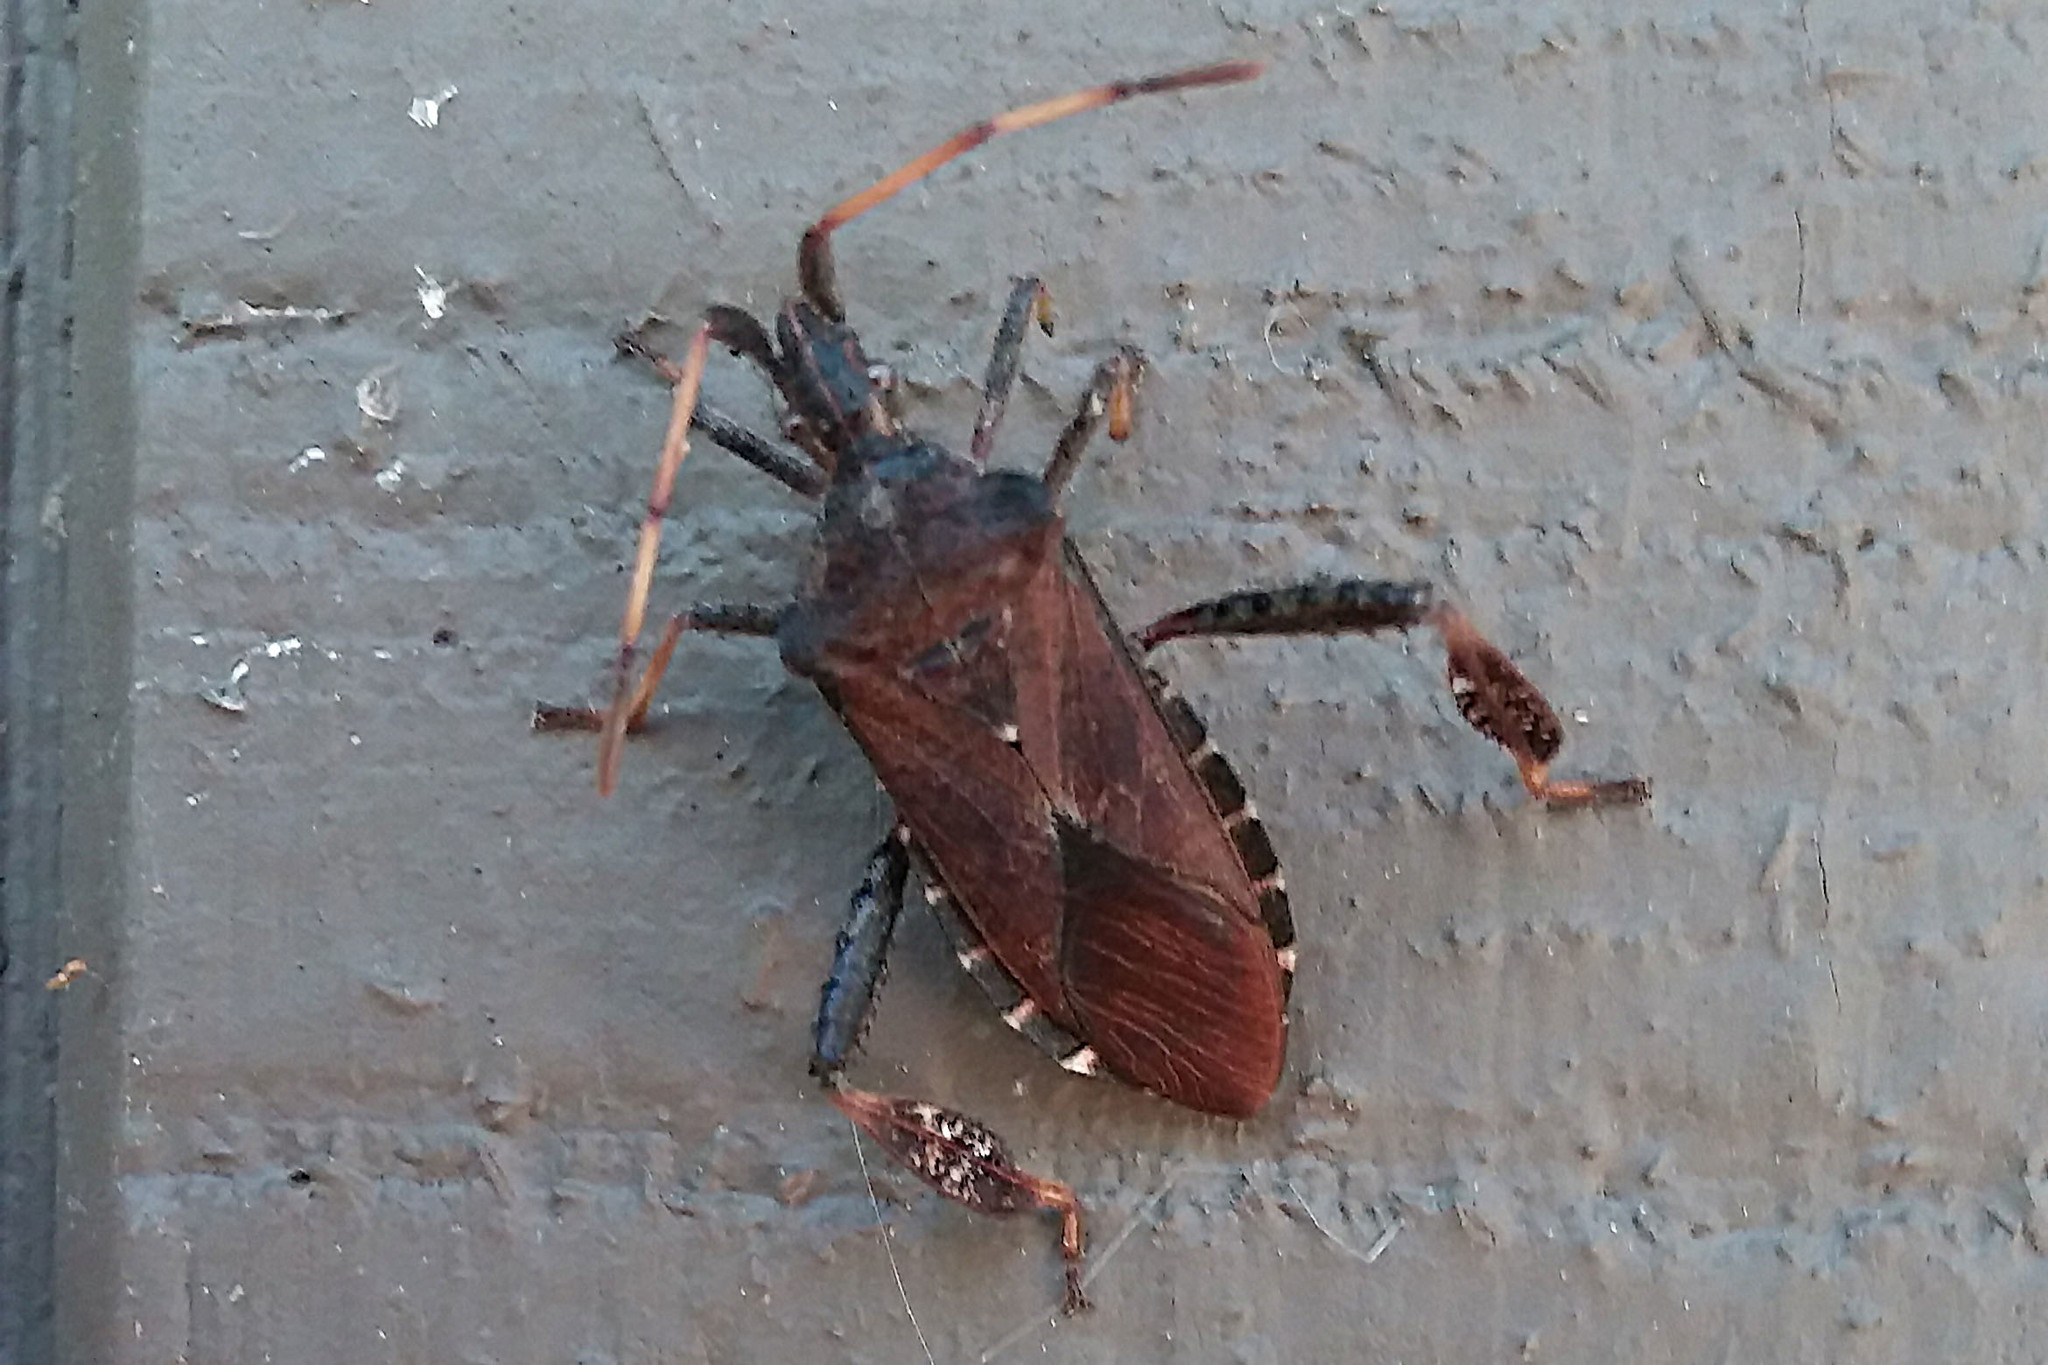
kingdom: Animalia
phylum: Arthropoda
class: Insecta
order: Hemiptera
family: Coreidae
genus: Leptoglossus
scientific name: Leptoglossus corculus
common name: Southern pine seed bug
